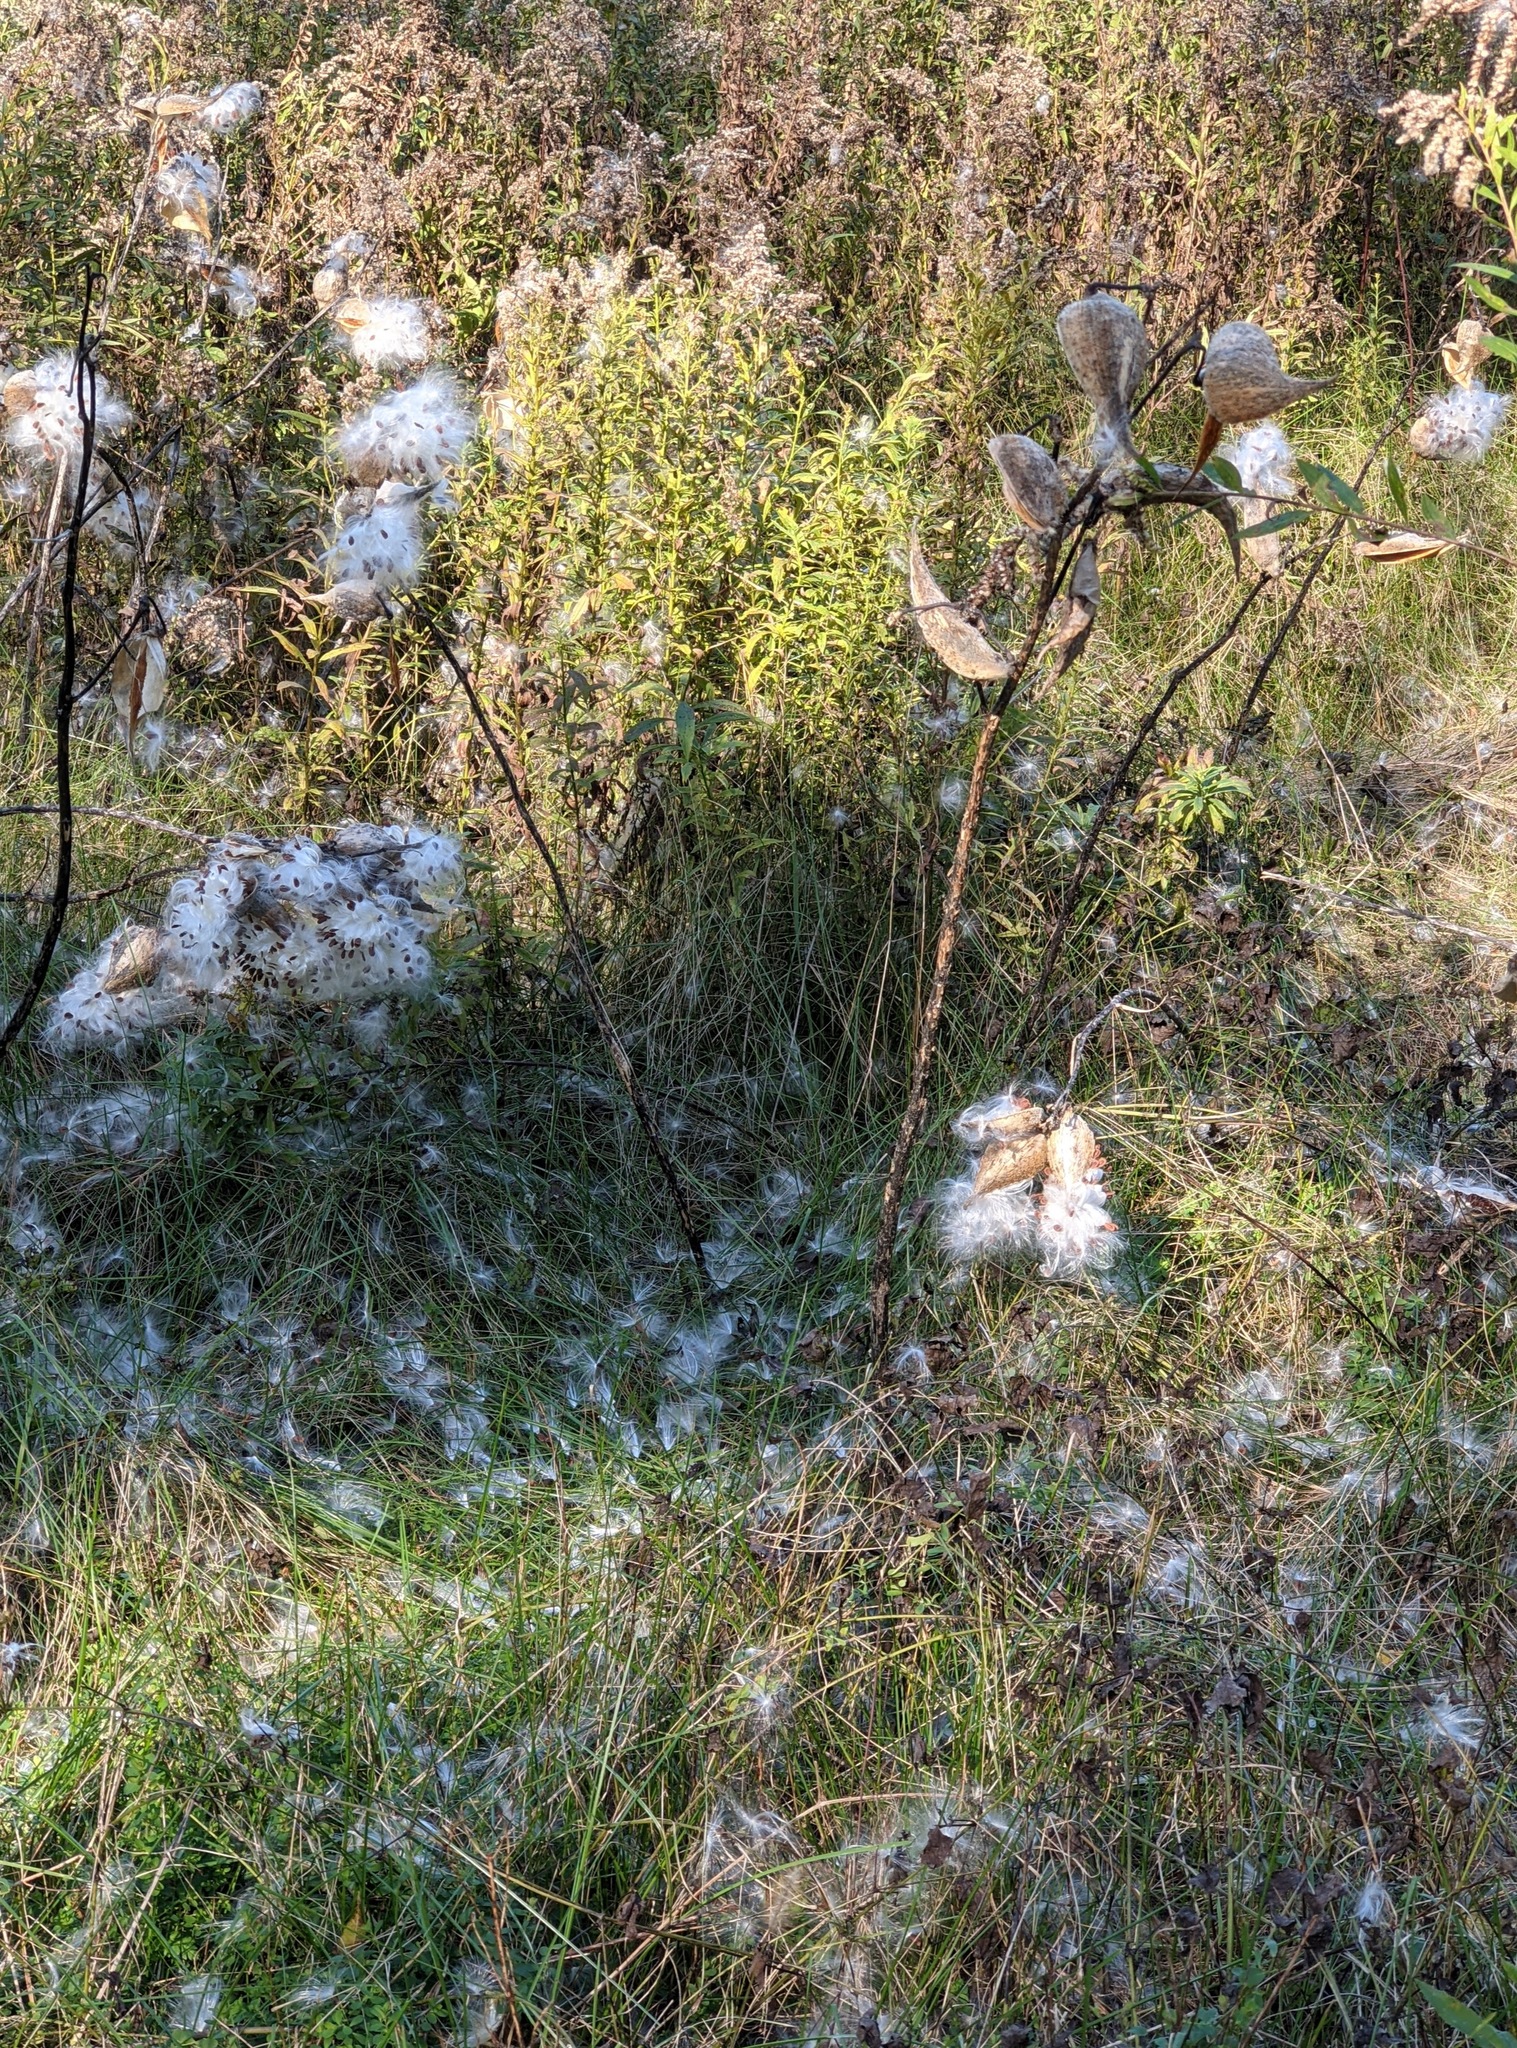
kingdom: Plantae
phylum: Tracheophyta
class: Magnoliopsida
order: Gentianales
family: Apocynaceae
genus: Asclepias
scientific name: Asclepias syriaca
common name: Common milkweed
